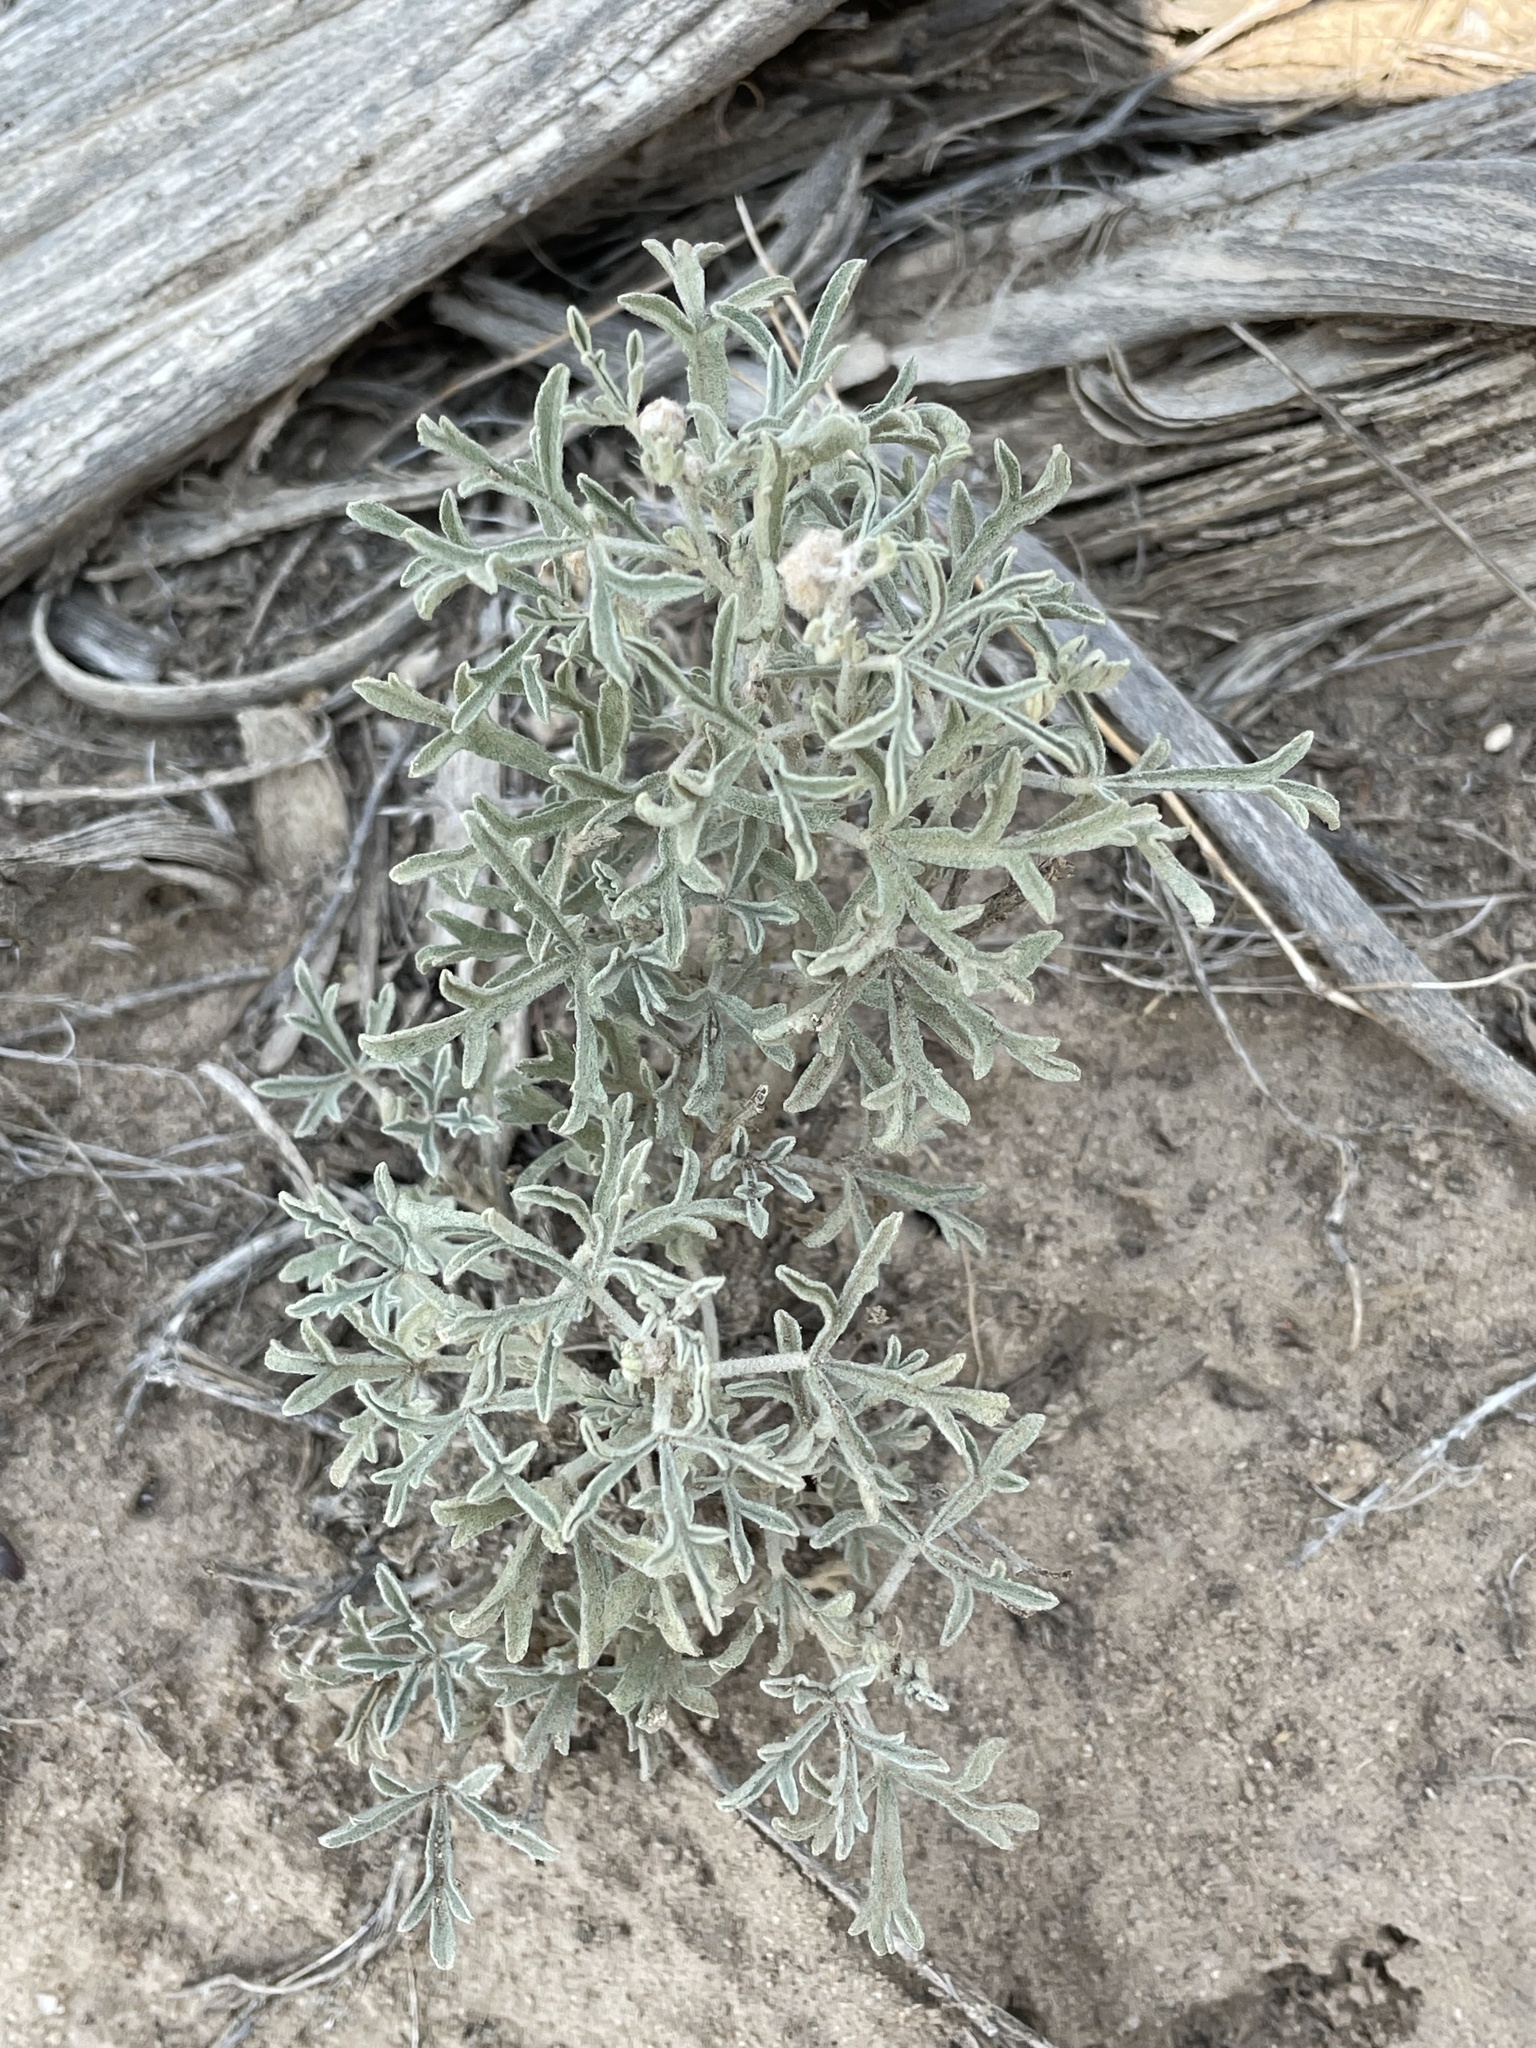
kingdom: Plantae
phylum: Tracheophyta
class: Magnoliopsida
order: Malvales
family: Malvaceae
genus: Sphaeralcea
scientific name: Sphaeralcea coccinea
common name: Moss-rose
